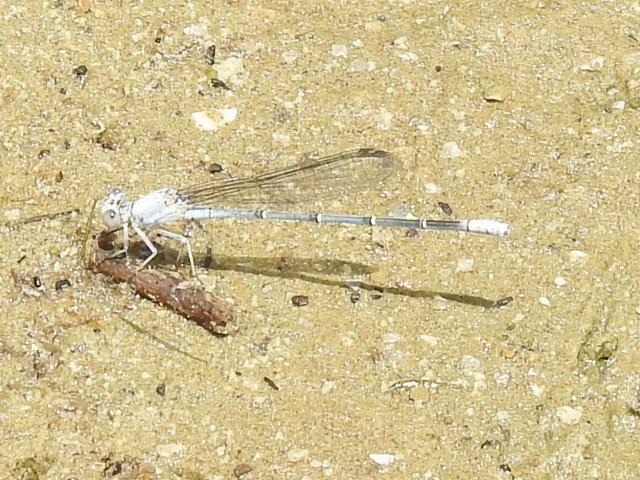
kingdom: Animalia
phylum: Arthropoda
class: Insecta
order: Odonata
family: Coenagrionidae
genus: Argia
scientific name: Argia moesta
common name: Powdered dancer
